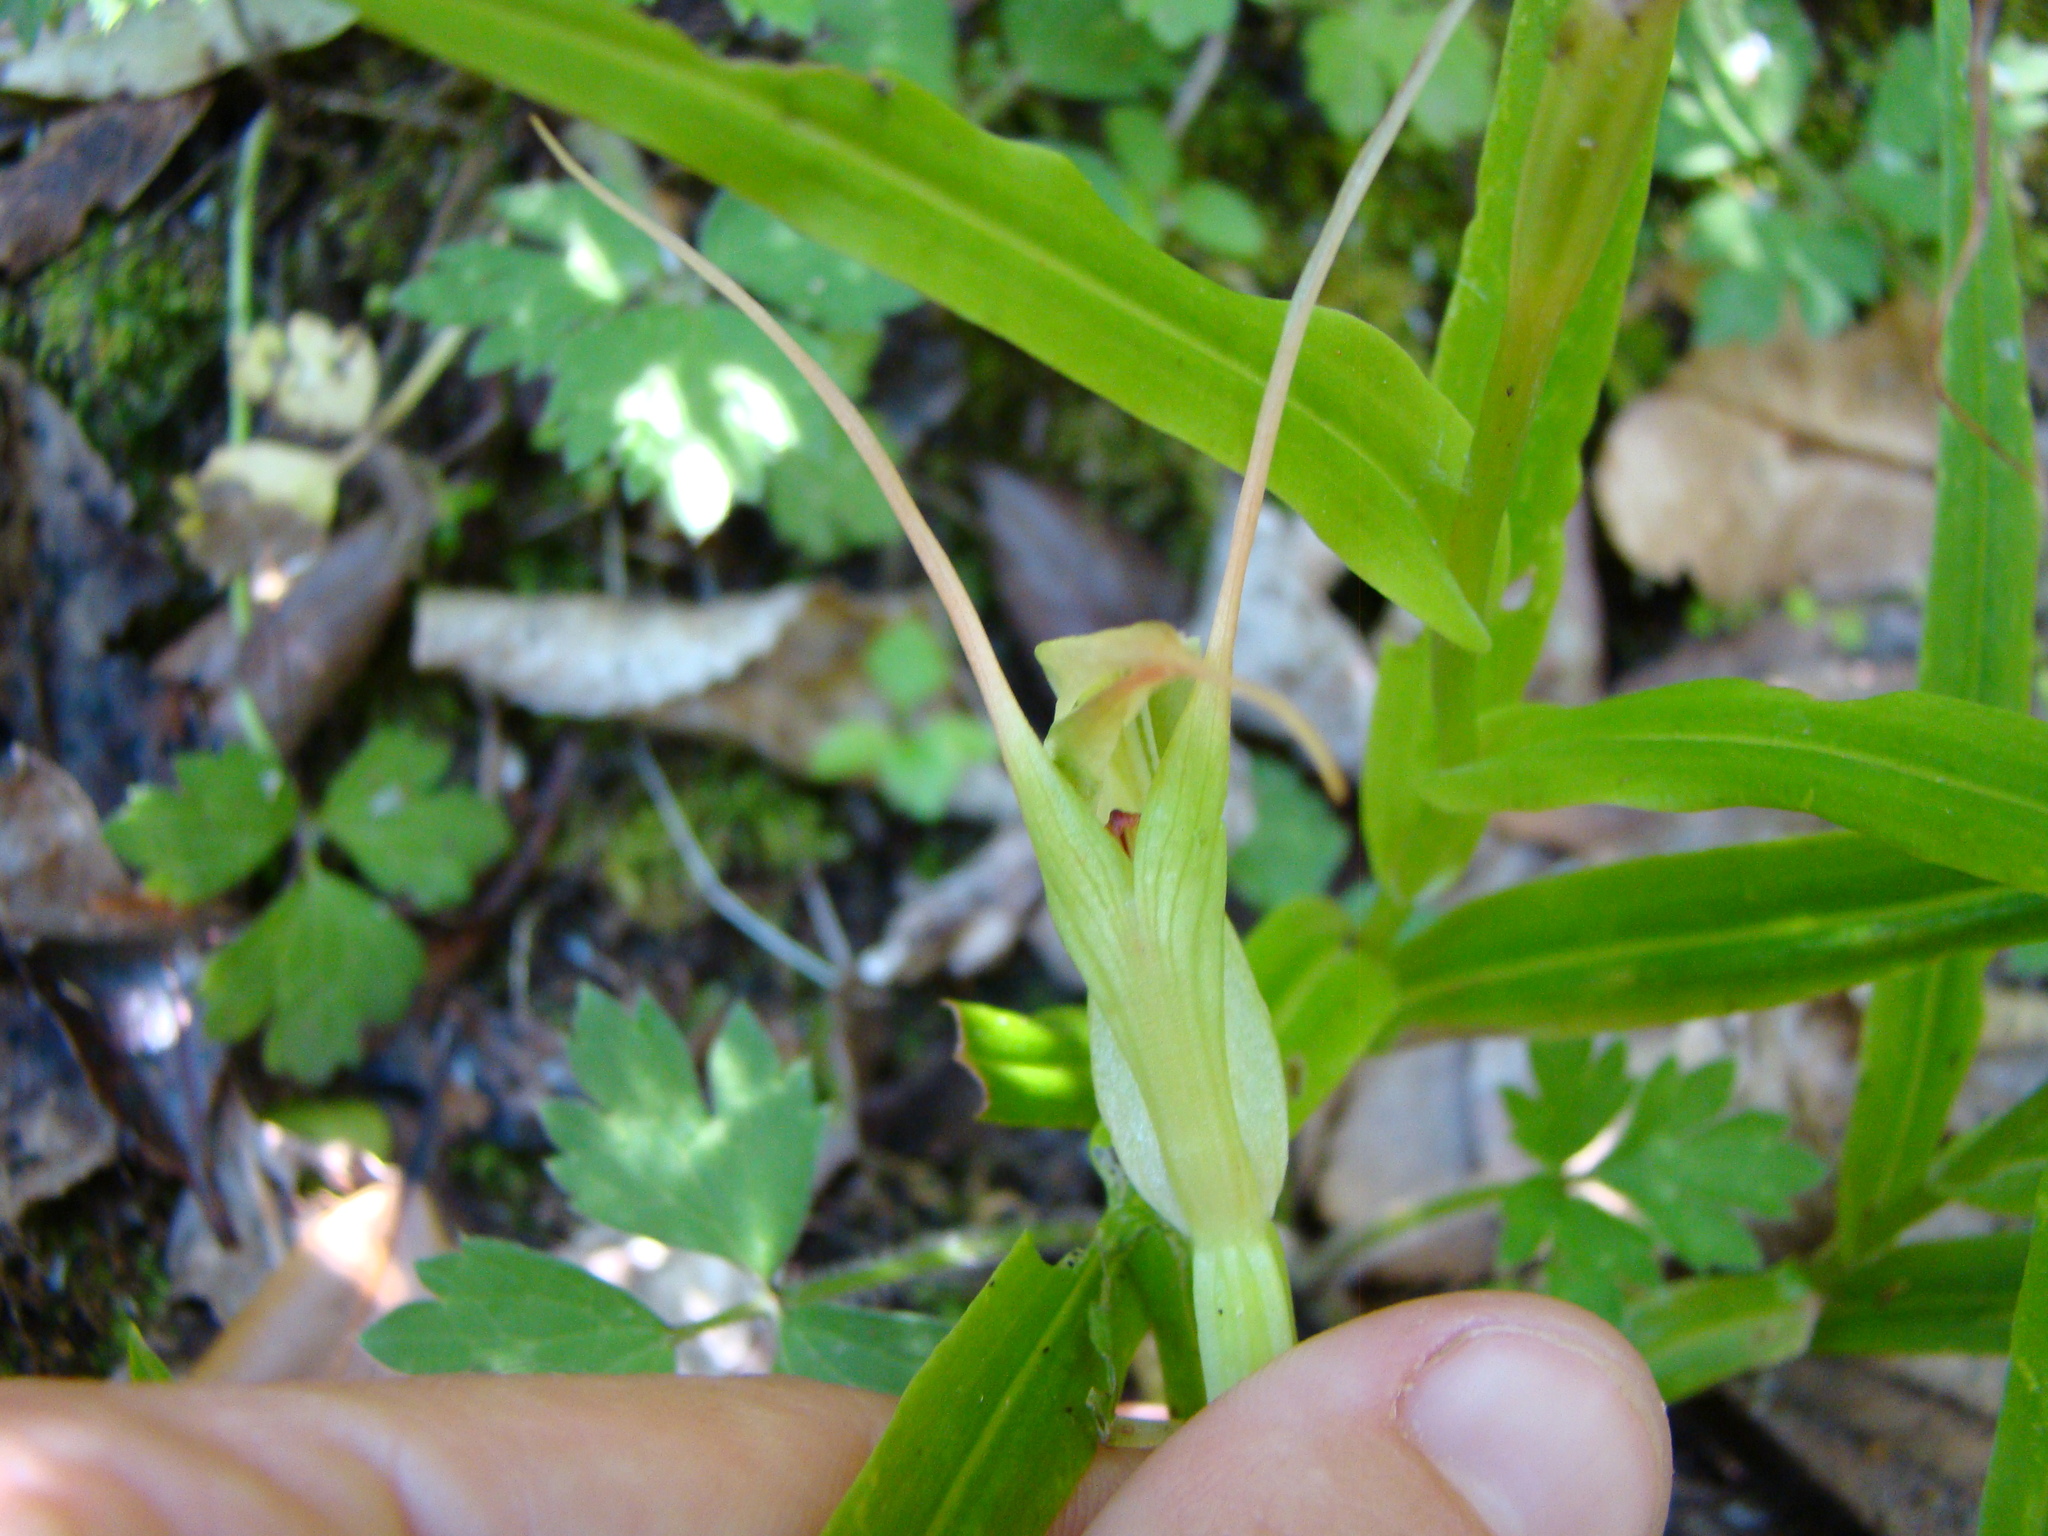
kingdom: Plantae
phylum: Tracheophyta
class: Liliopsida
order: Asparagales
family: Orchidaceae
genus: Pterostylis
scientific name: Pterostylis banksii
